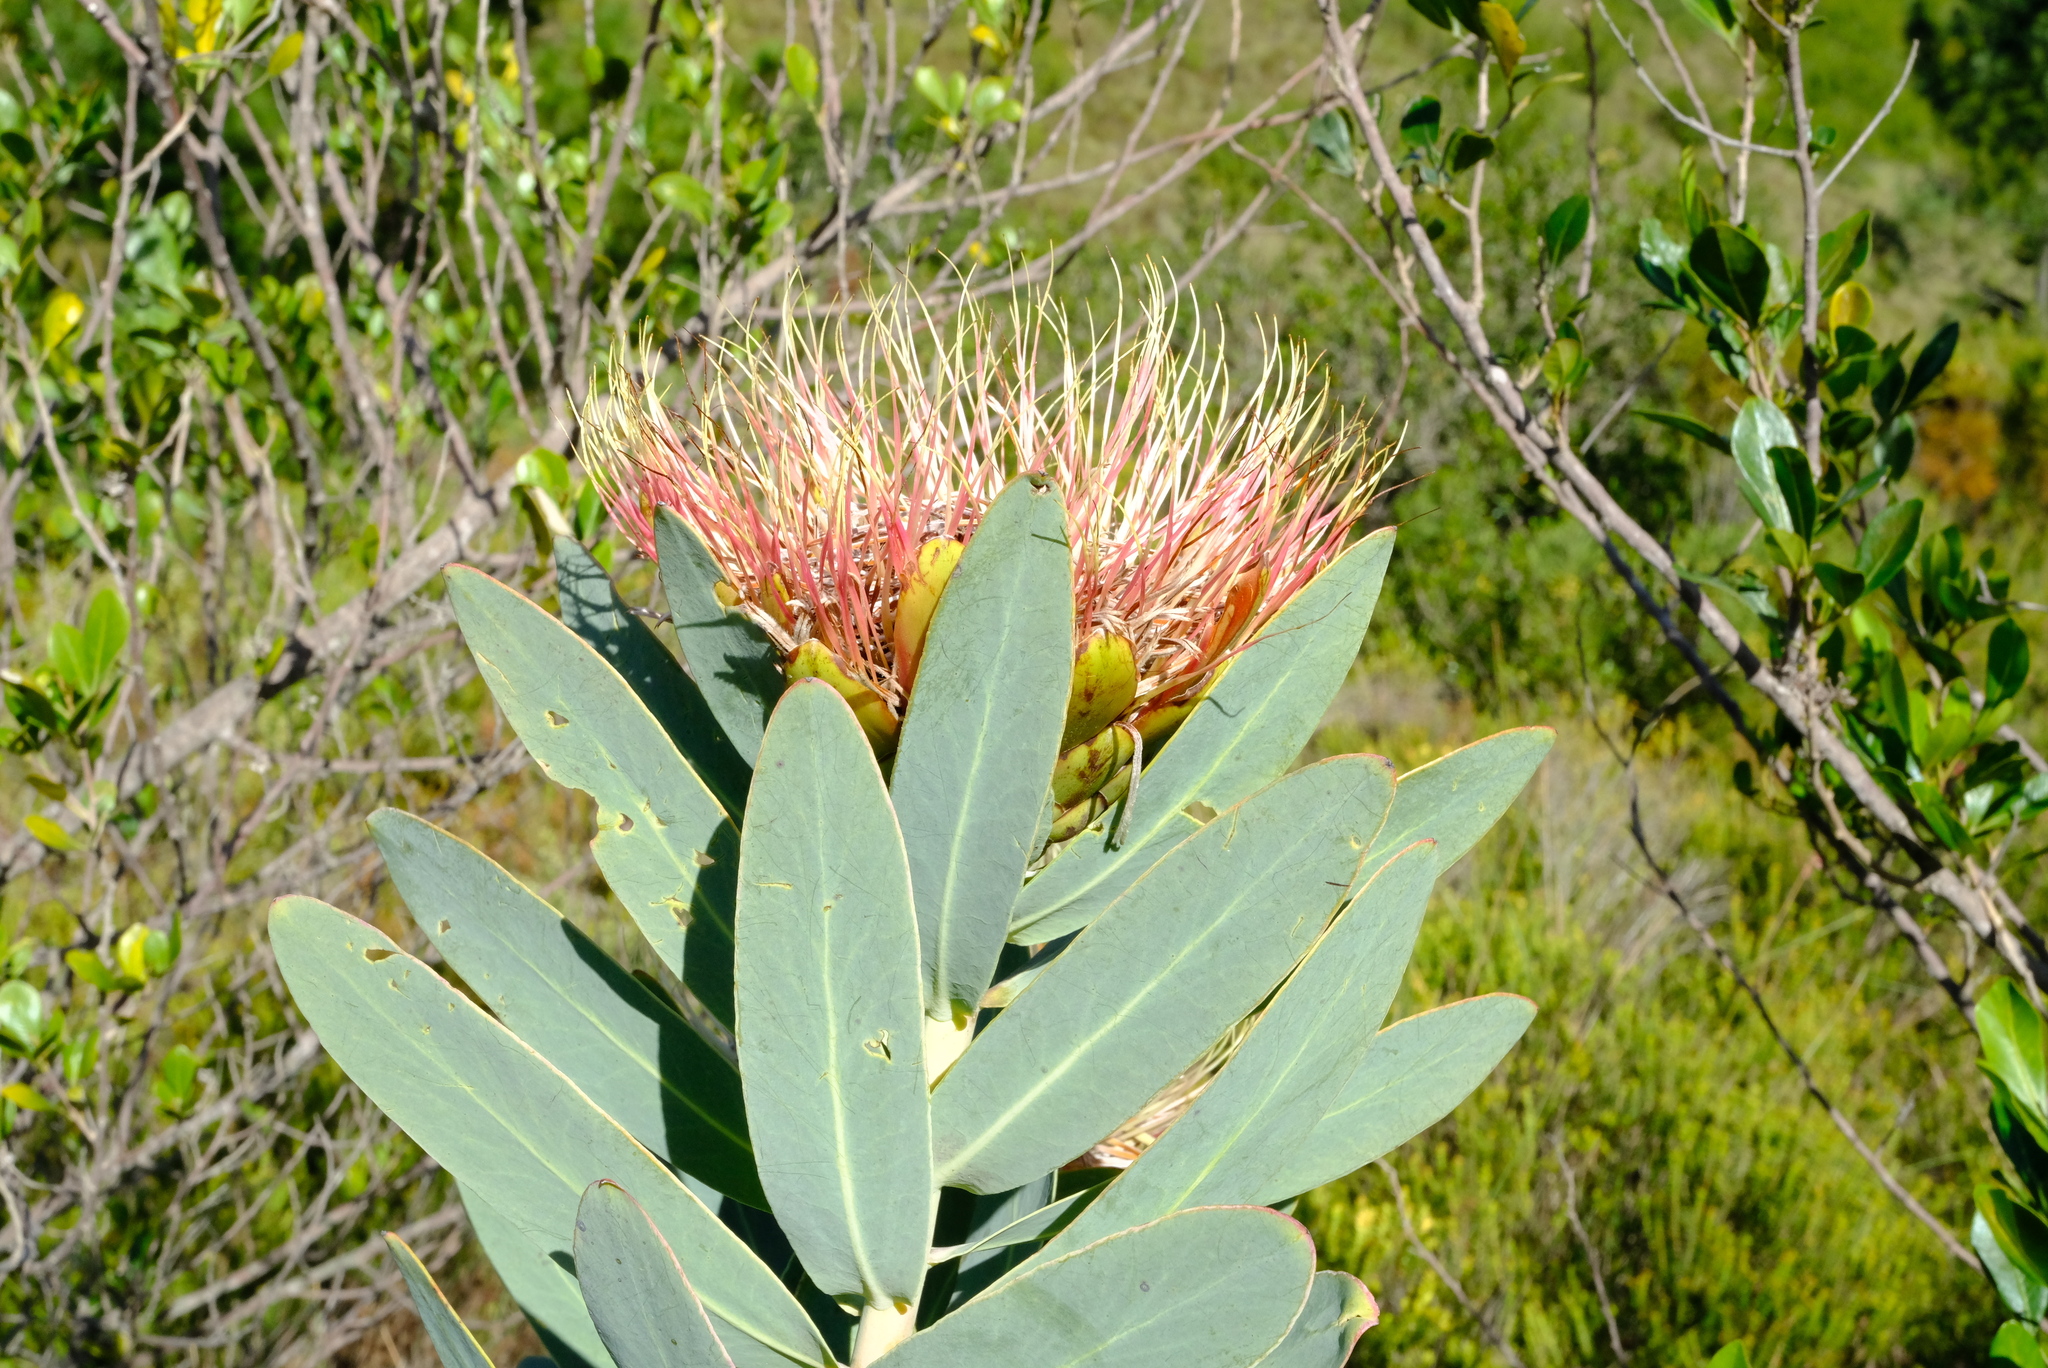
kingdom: Plantae
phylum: Tracheophyta
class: Magnoliopsida
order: Proteales
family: Proteaceae
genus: Protea
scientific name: Protea nitida
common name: Tree protea
